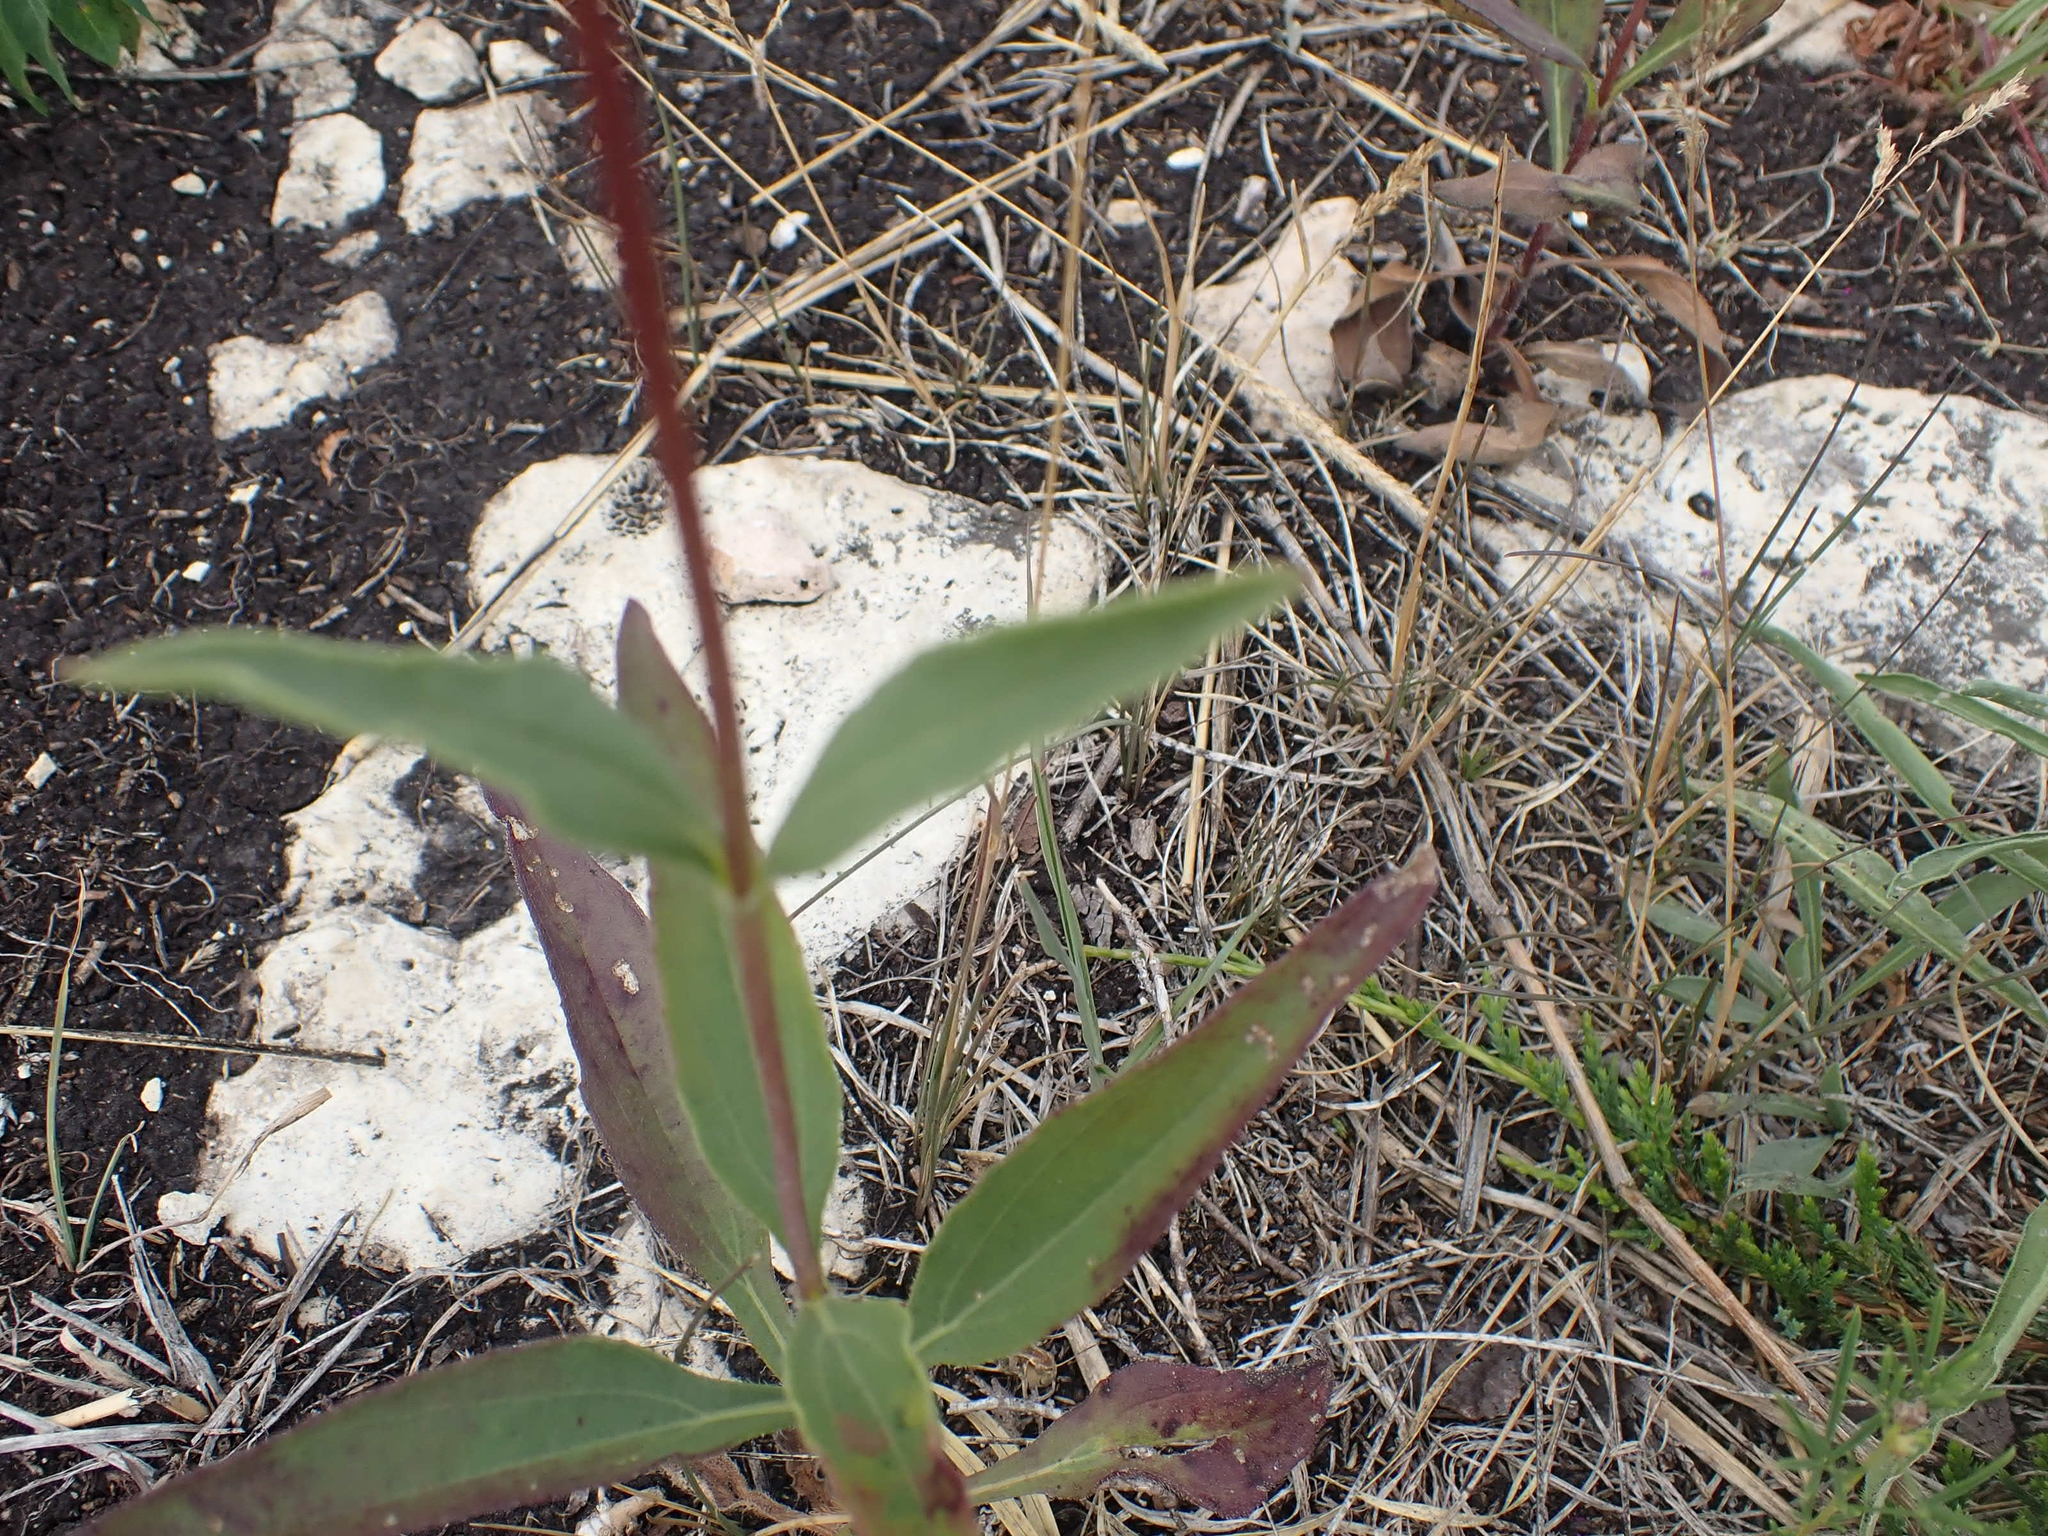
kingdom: Plantae
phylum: Tracheophyta
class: Magnoliopsida
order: Asterales
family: Asteraceae
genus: Helianthus
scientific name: Helianthus pauciflorus
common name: Stiff sunflower
